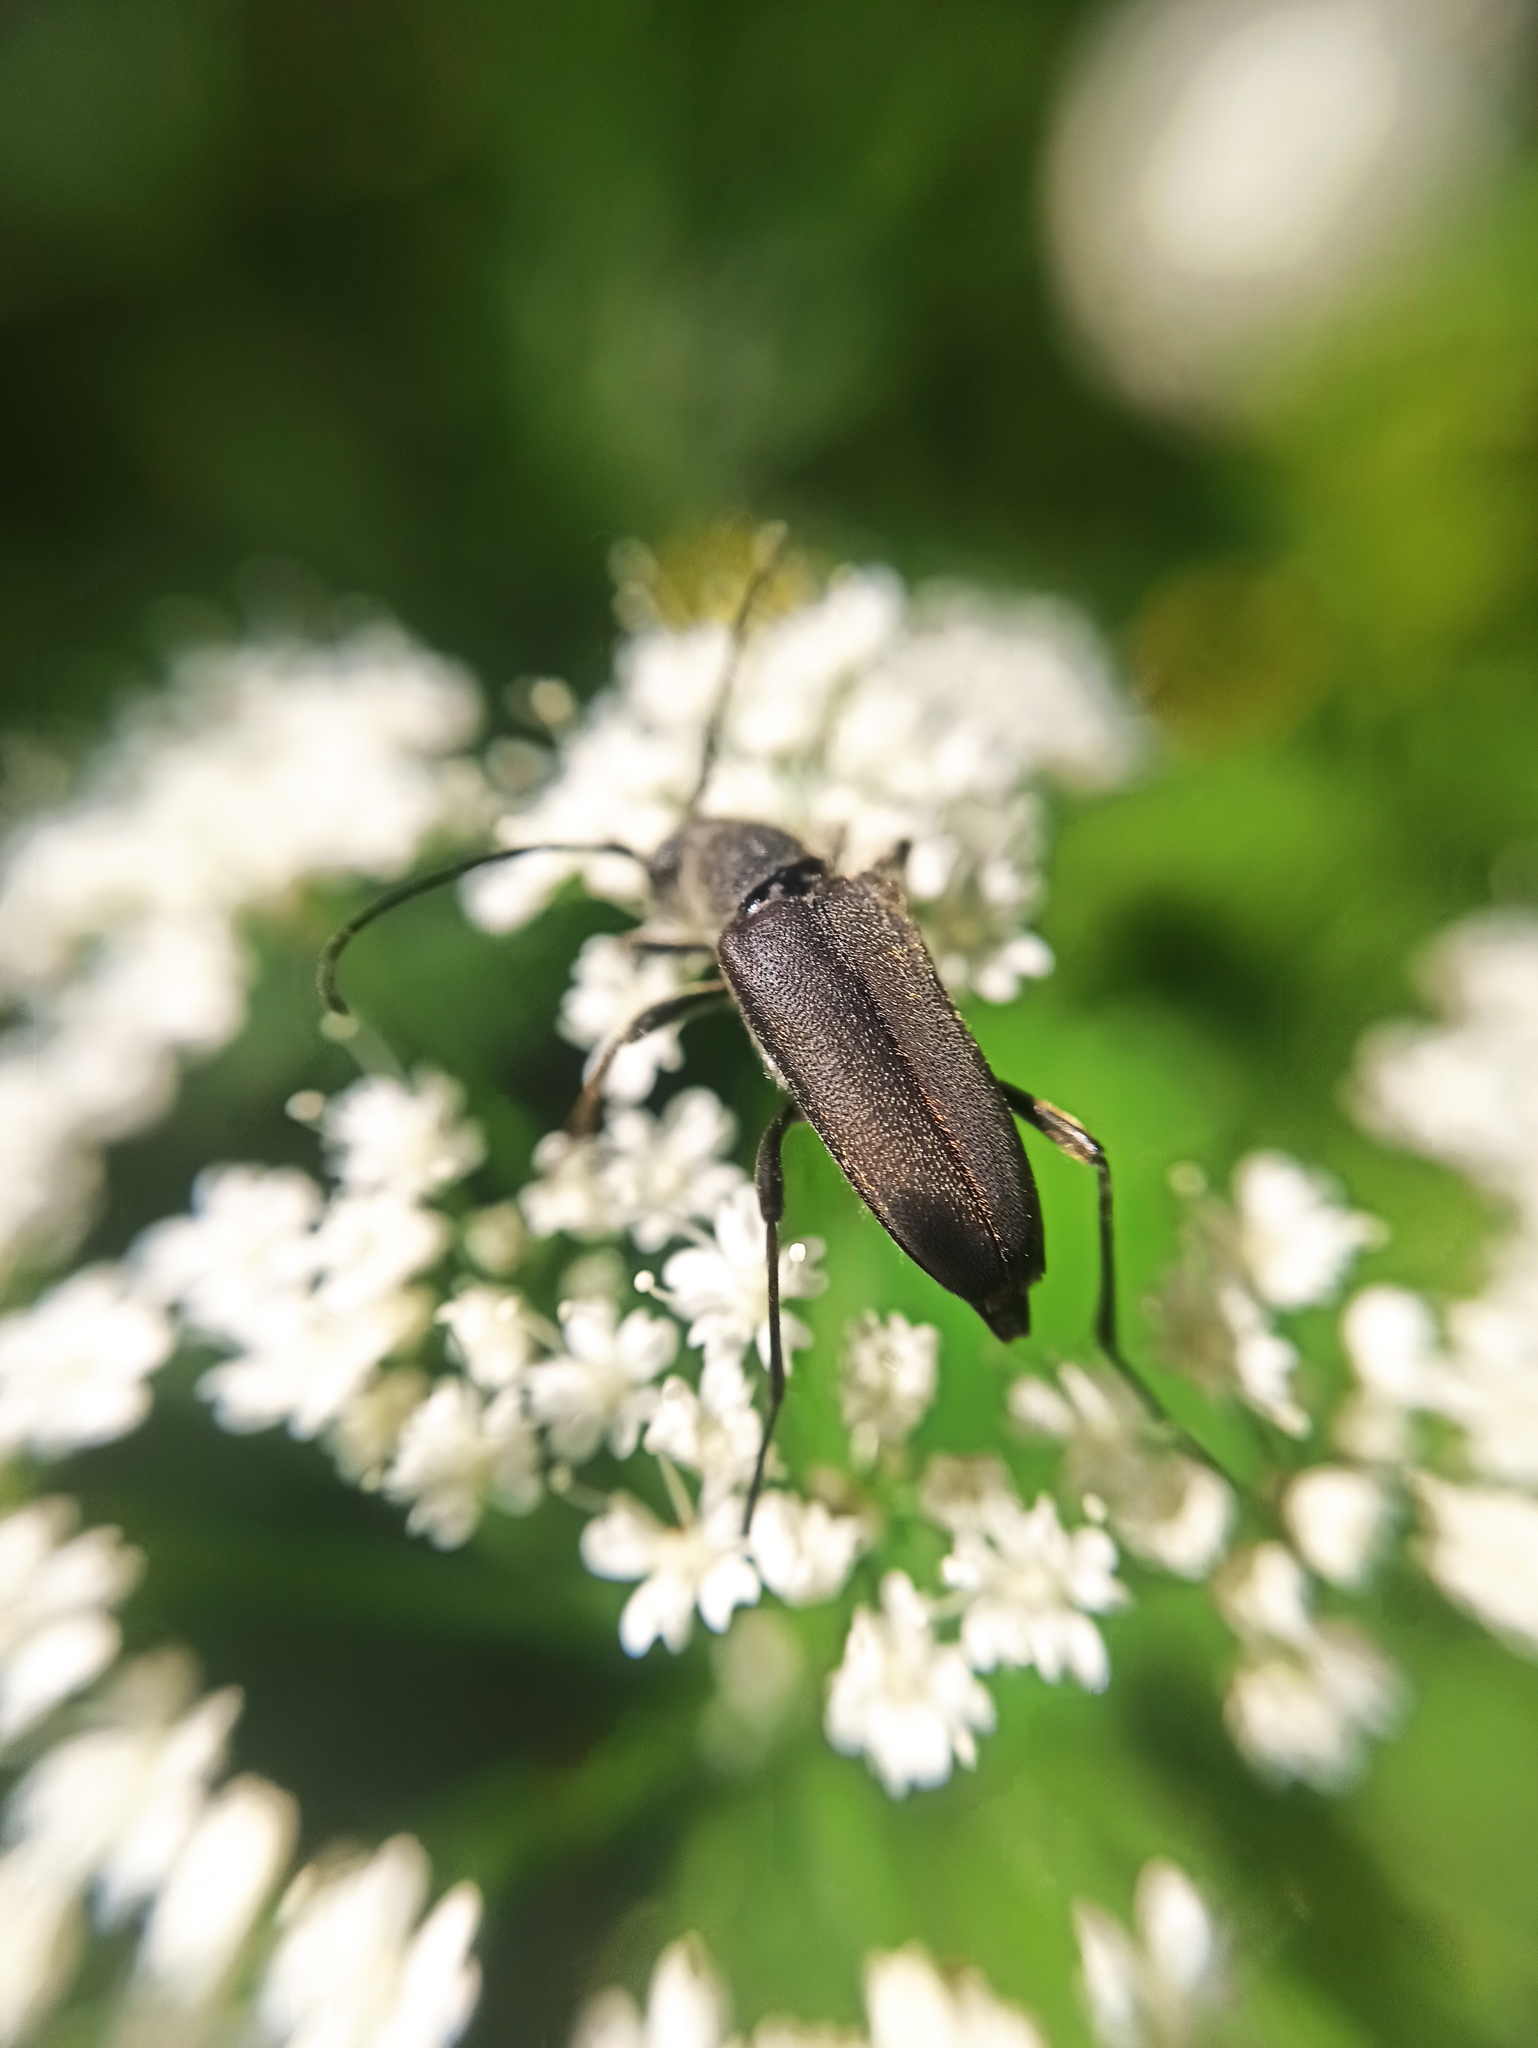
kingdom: Animalia
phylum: Arthropoda
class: Insecta
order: Coleoptera
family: Cerambycidae
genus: Anastrangalia
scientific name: Anastrangalia dubia
